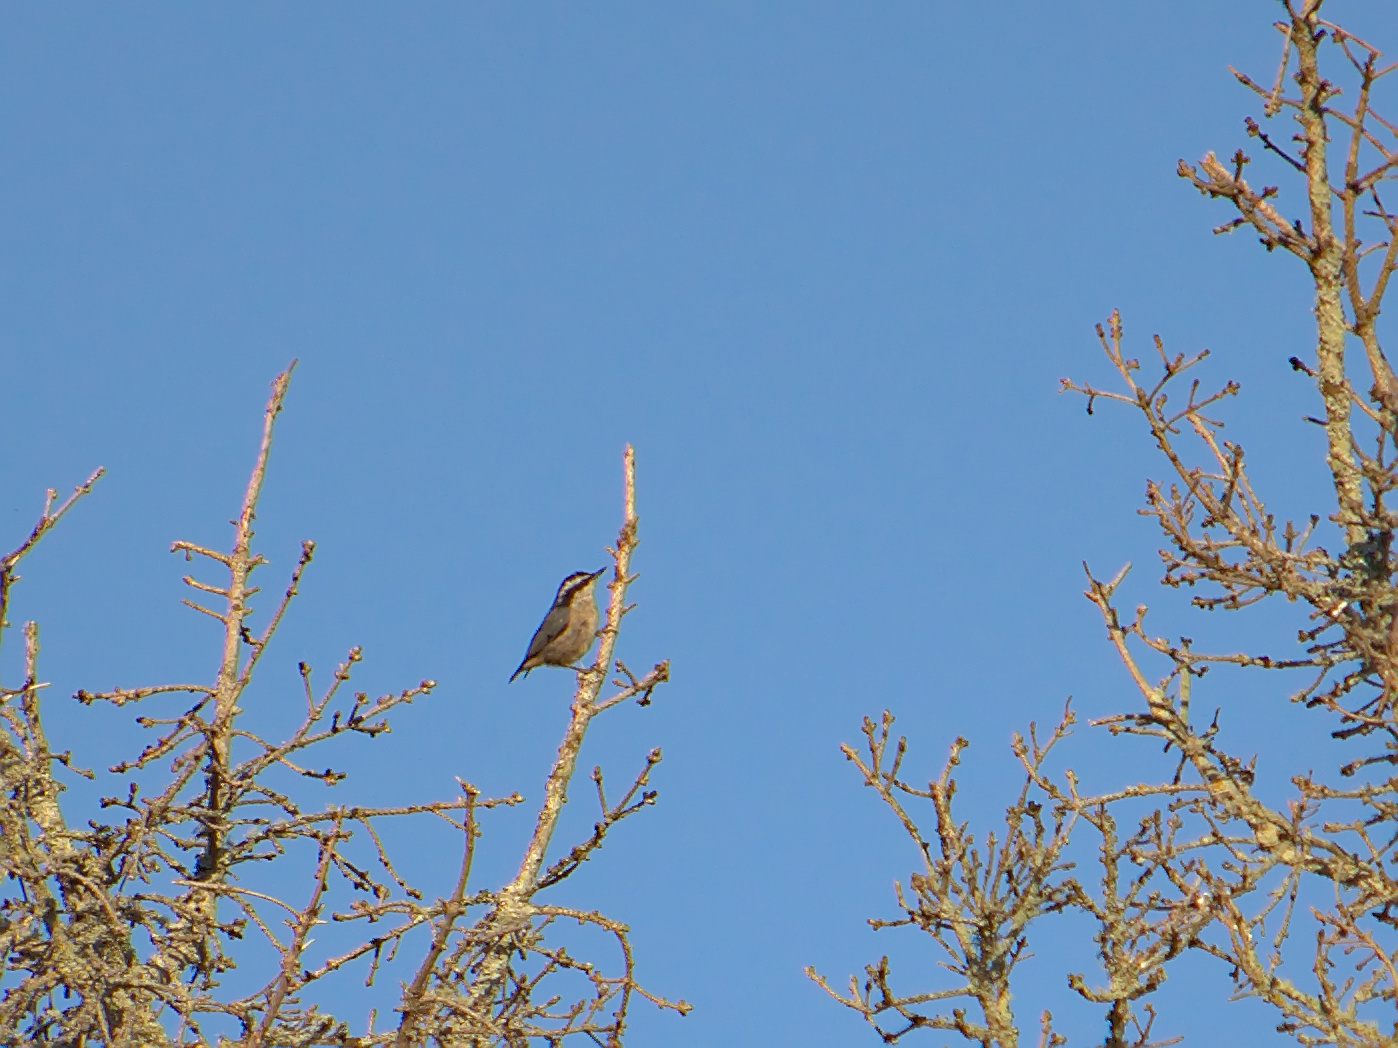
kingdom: Animalia
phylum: Chordata
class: Aves
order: Passeriformes
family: Sittidae
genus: Sitta
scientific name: Sitta canadensis
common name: Red-breasted nuthatch
